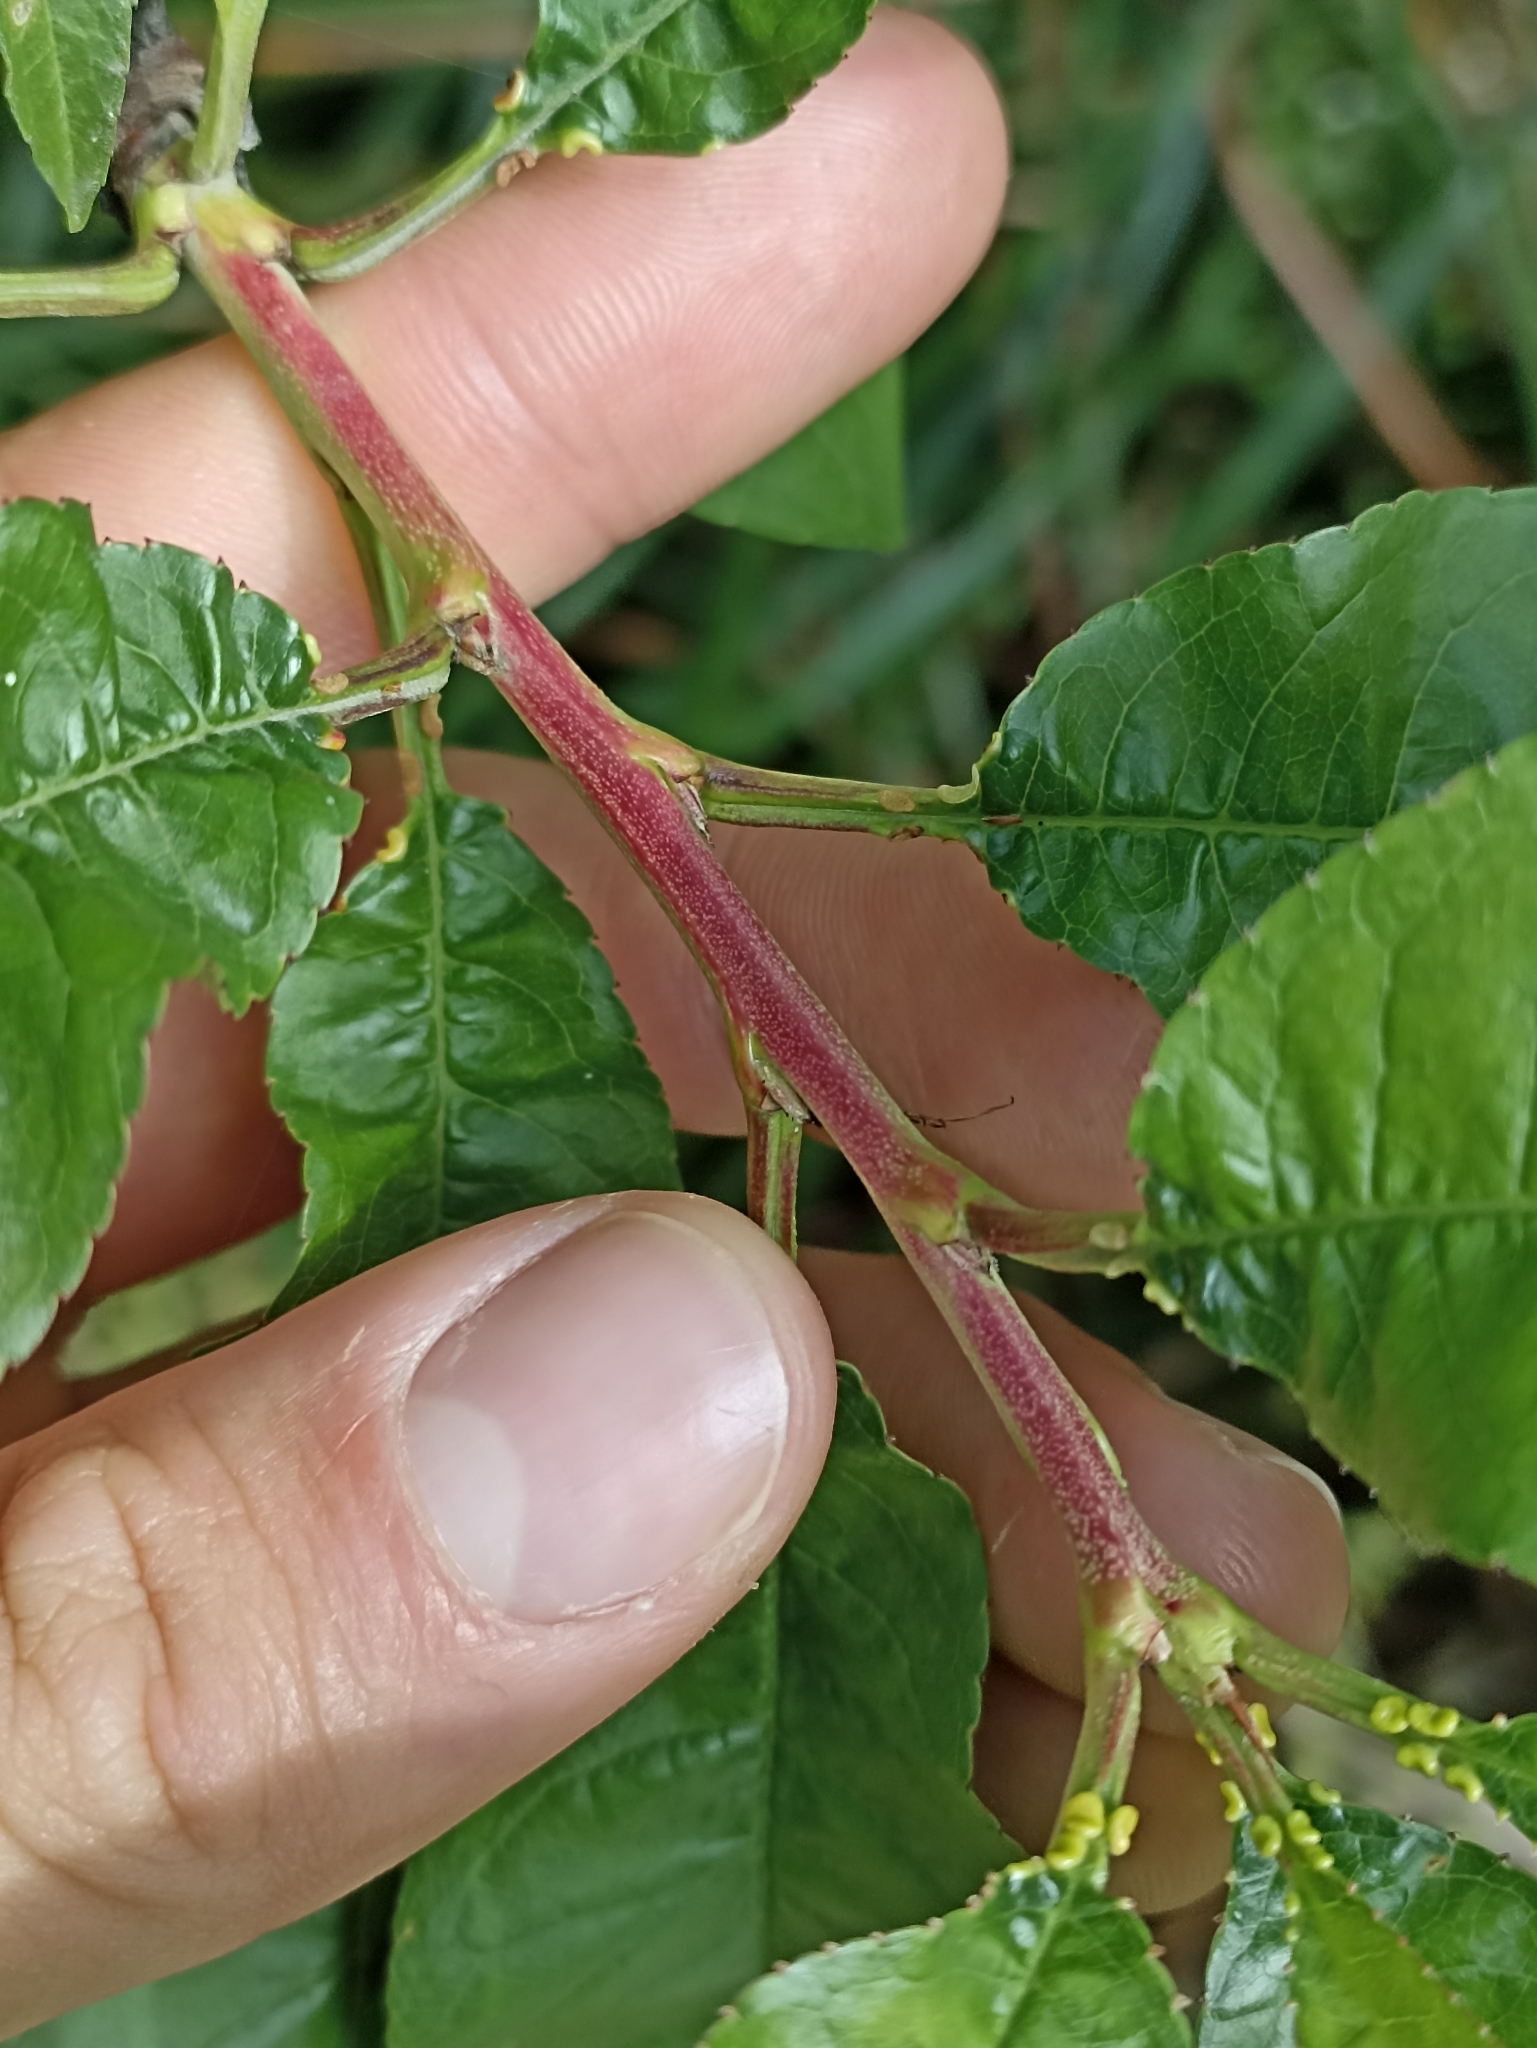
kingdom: Plantae
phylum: Tracheophyta
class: Magnoliopsida
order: Rosales
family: Rosaceae
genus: Prunus
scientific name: Prunus persica
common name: Peach
